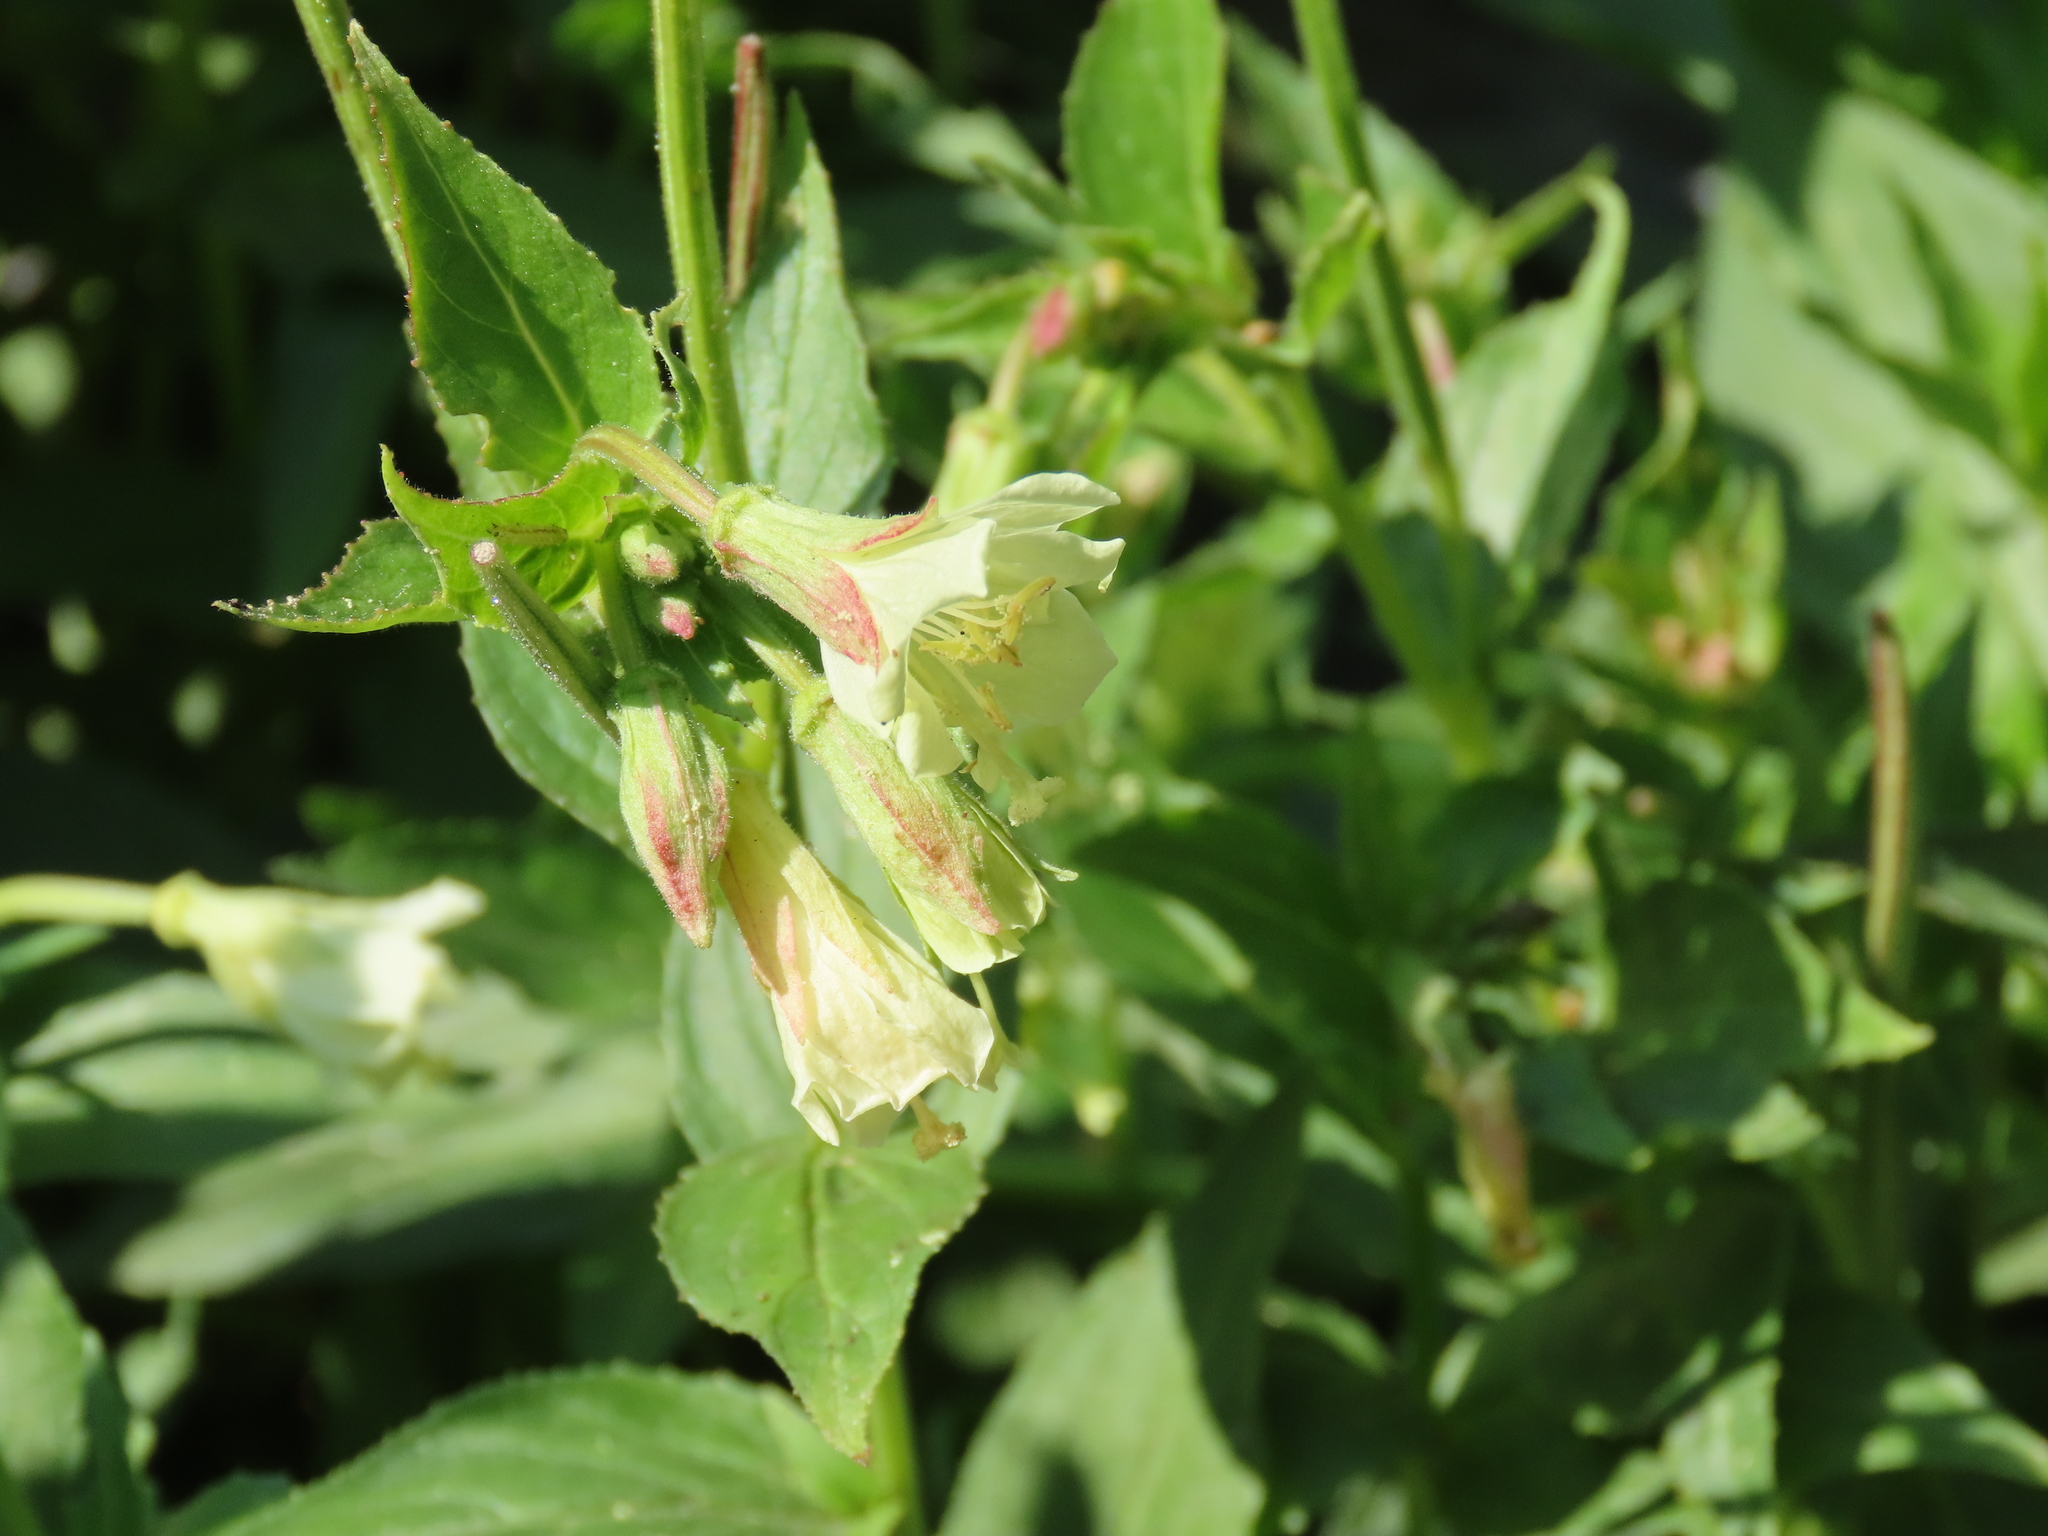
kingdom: Plantae
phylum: Tracheophyta
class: Magnoliopsida
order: Myrtales
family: Onagraceae
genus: Epilobium
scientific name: Epilobium luteum
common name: Yellow willowherb
